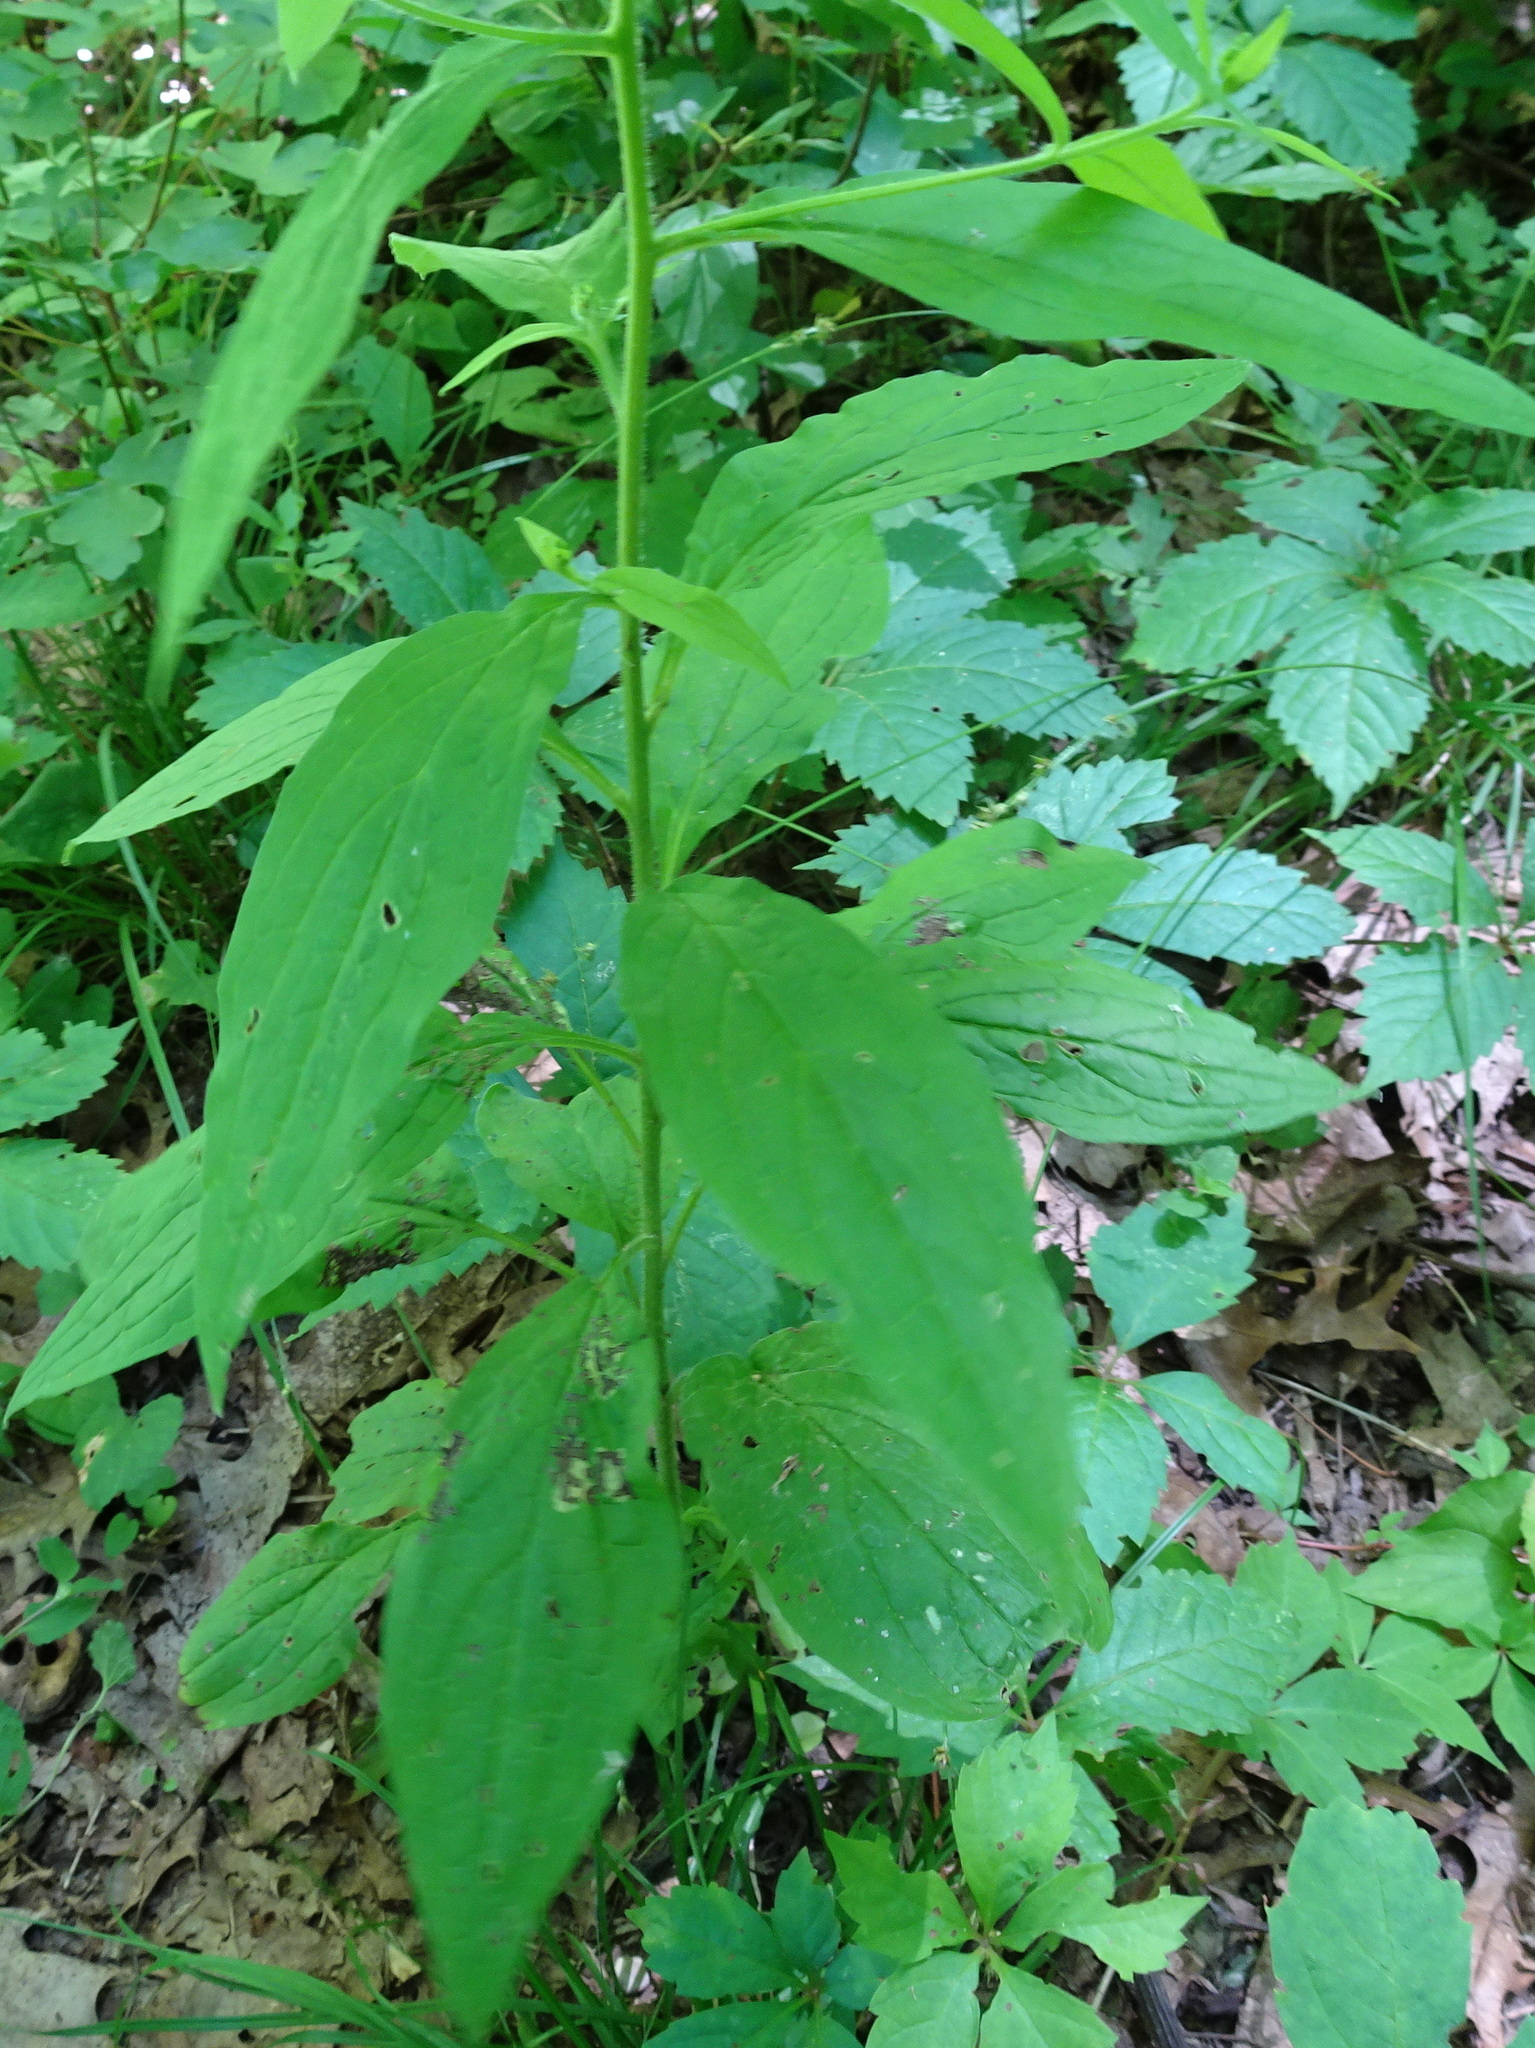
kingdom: Plantae
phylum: Tracheophyta
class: Magnoliopsida
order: Boraginales
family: Boraginaceae
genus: Hackelia
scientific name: Hackelia virginiana
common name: Beggar's-lice
